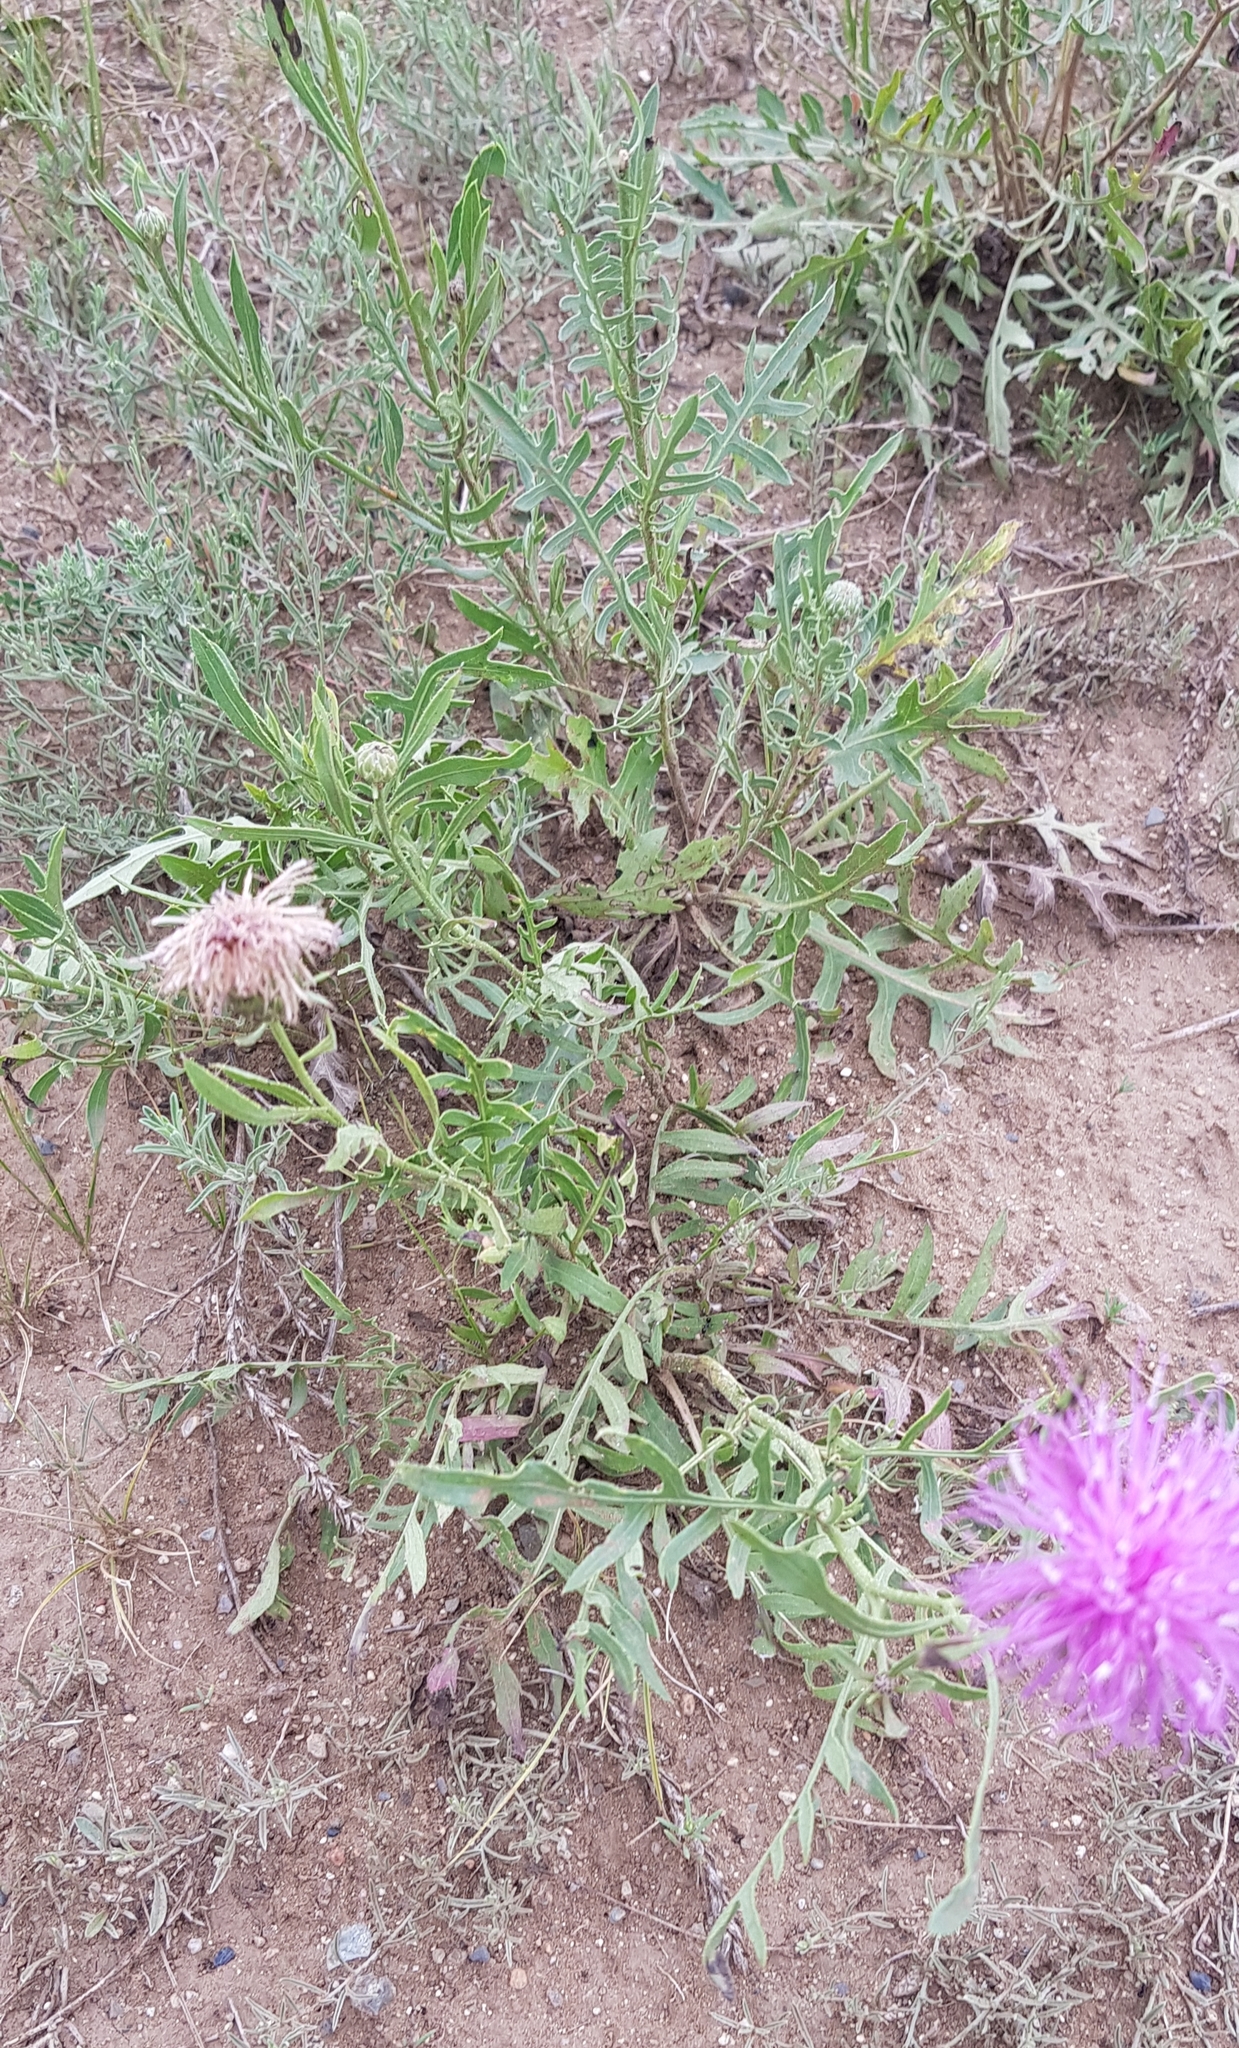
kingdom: Plantae
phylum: Tracheophyta
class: Magnoliopsida
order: Asterales
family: Asteraceae
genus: Klasea
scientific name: Klasea centauroides
